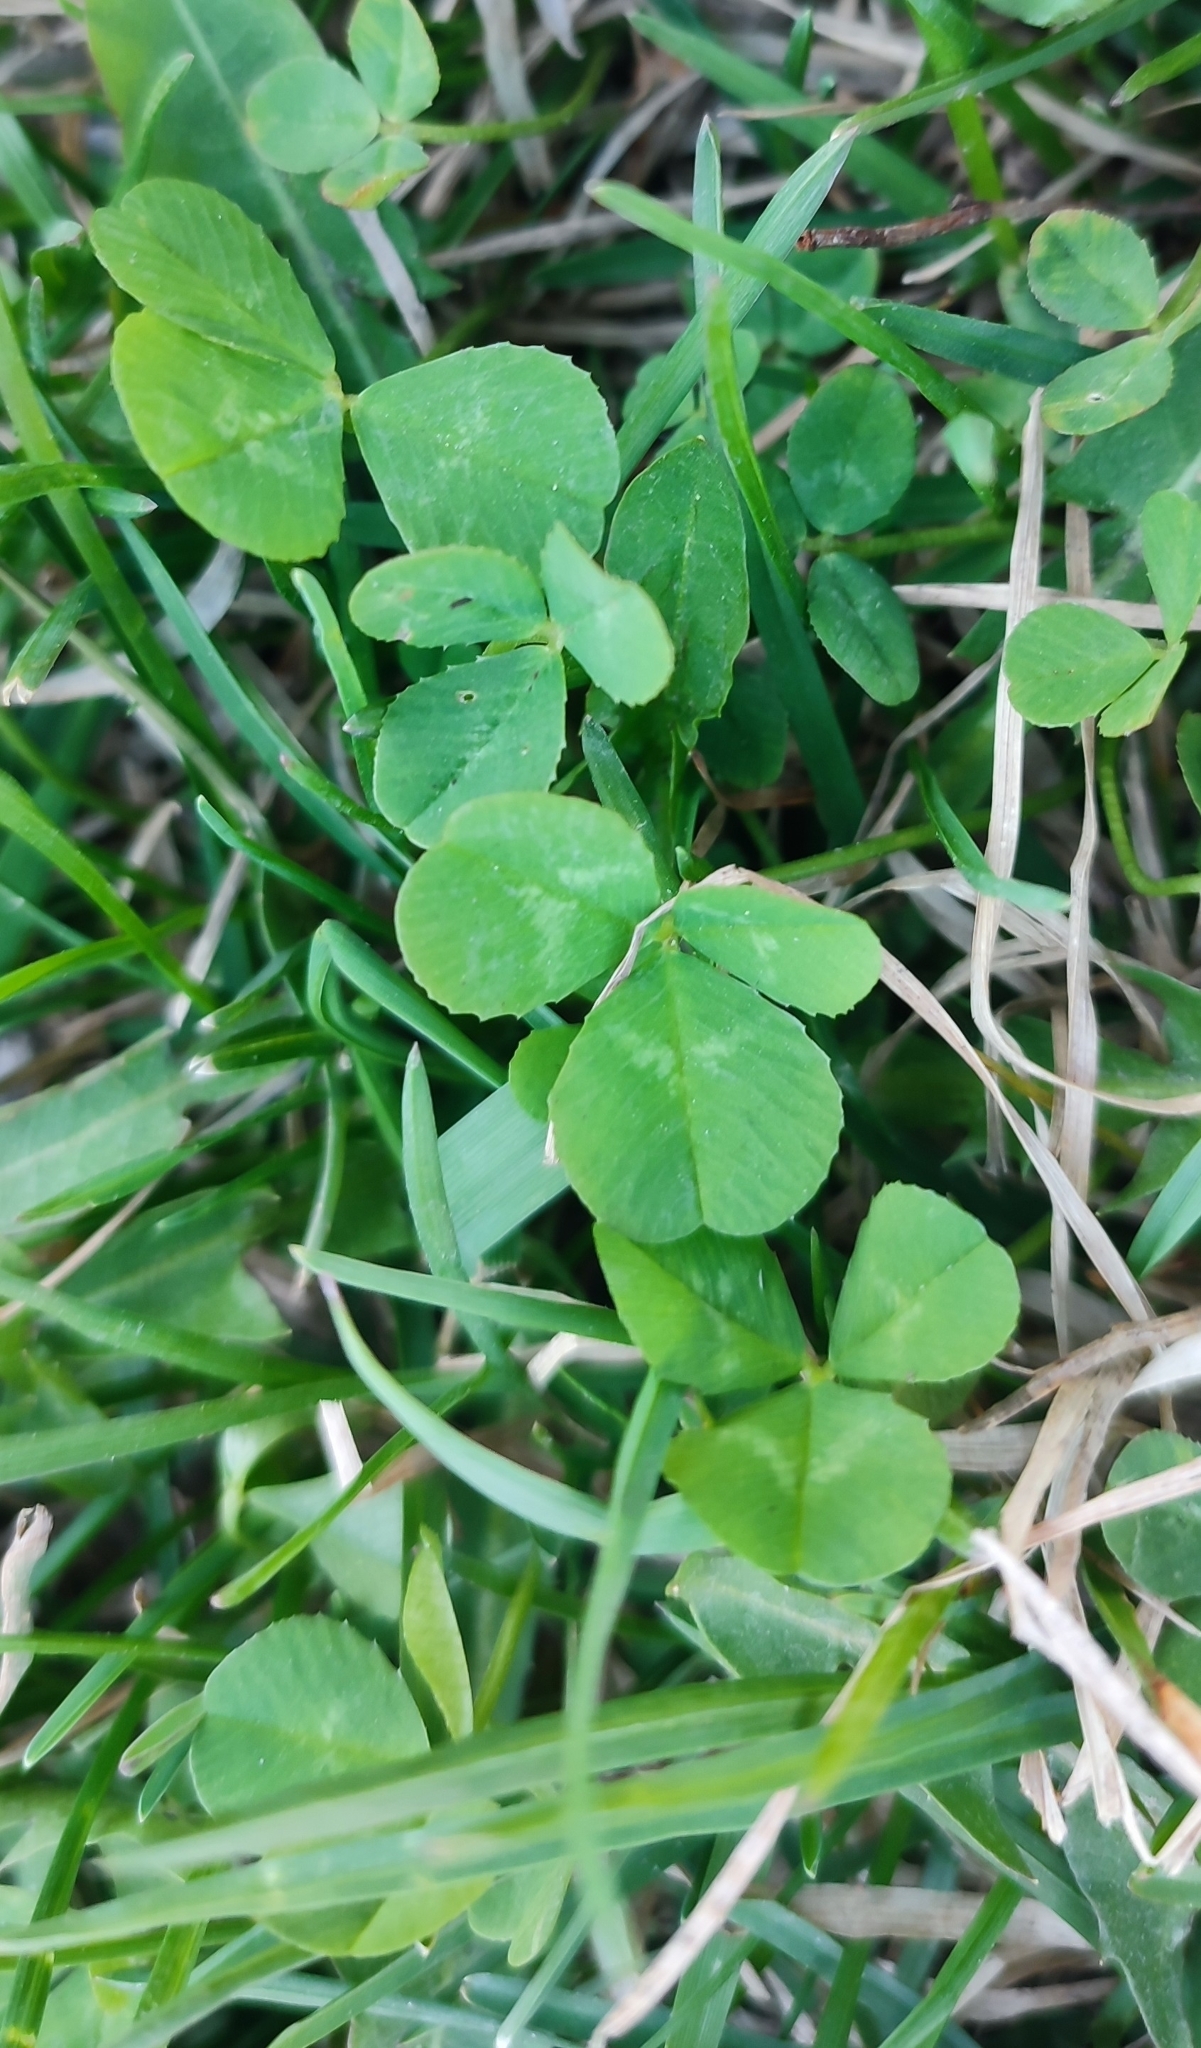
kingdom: Plantae
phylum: Tracheophyta
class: Magnoliopsida
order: Fabales
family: Fabaceae
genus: Trifolium
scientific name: Trifolium repens
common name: White clover
